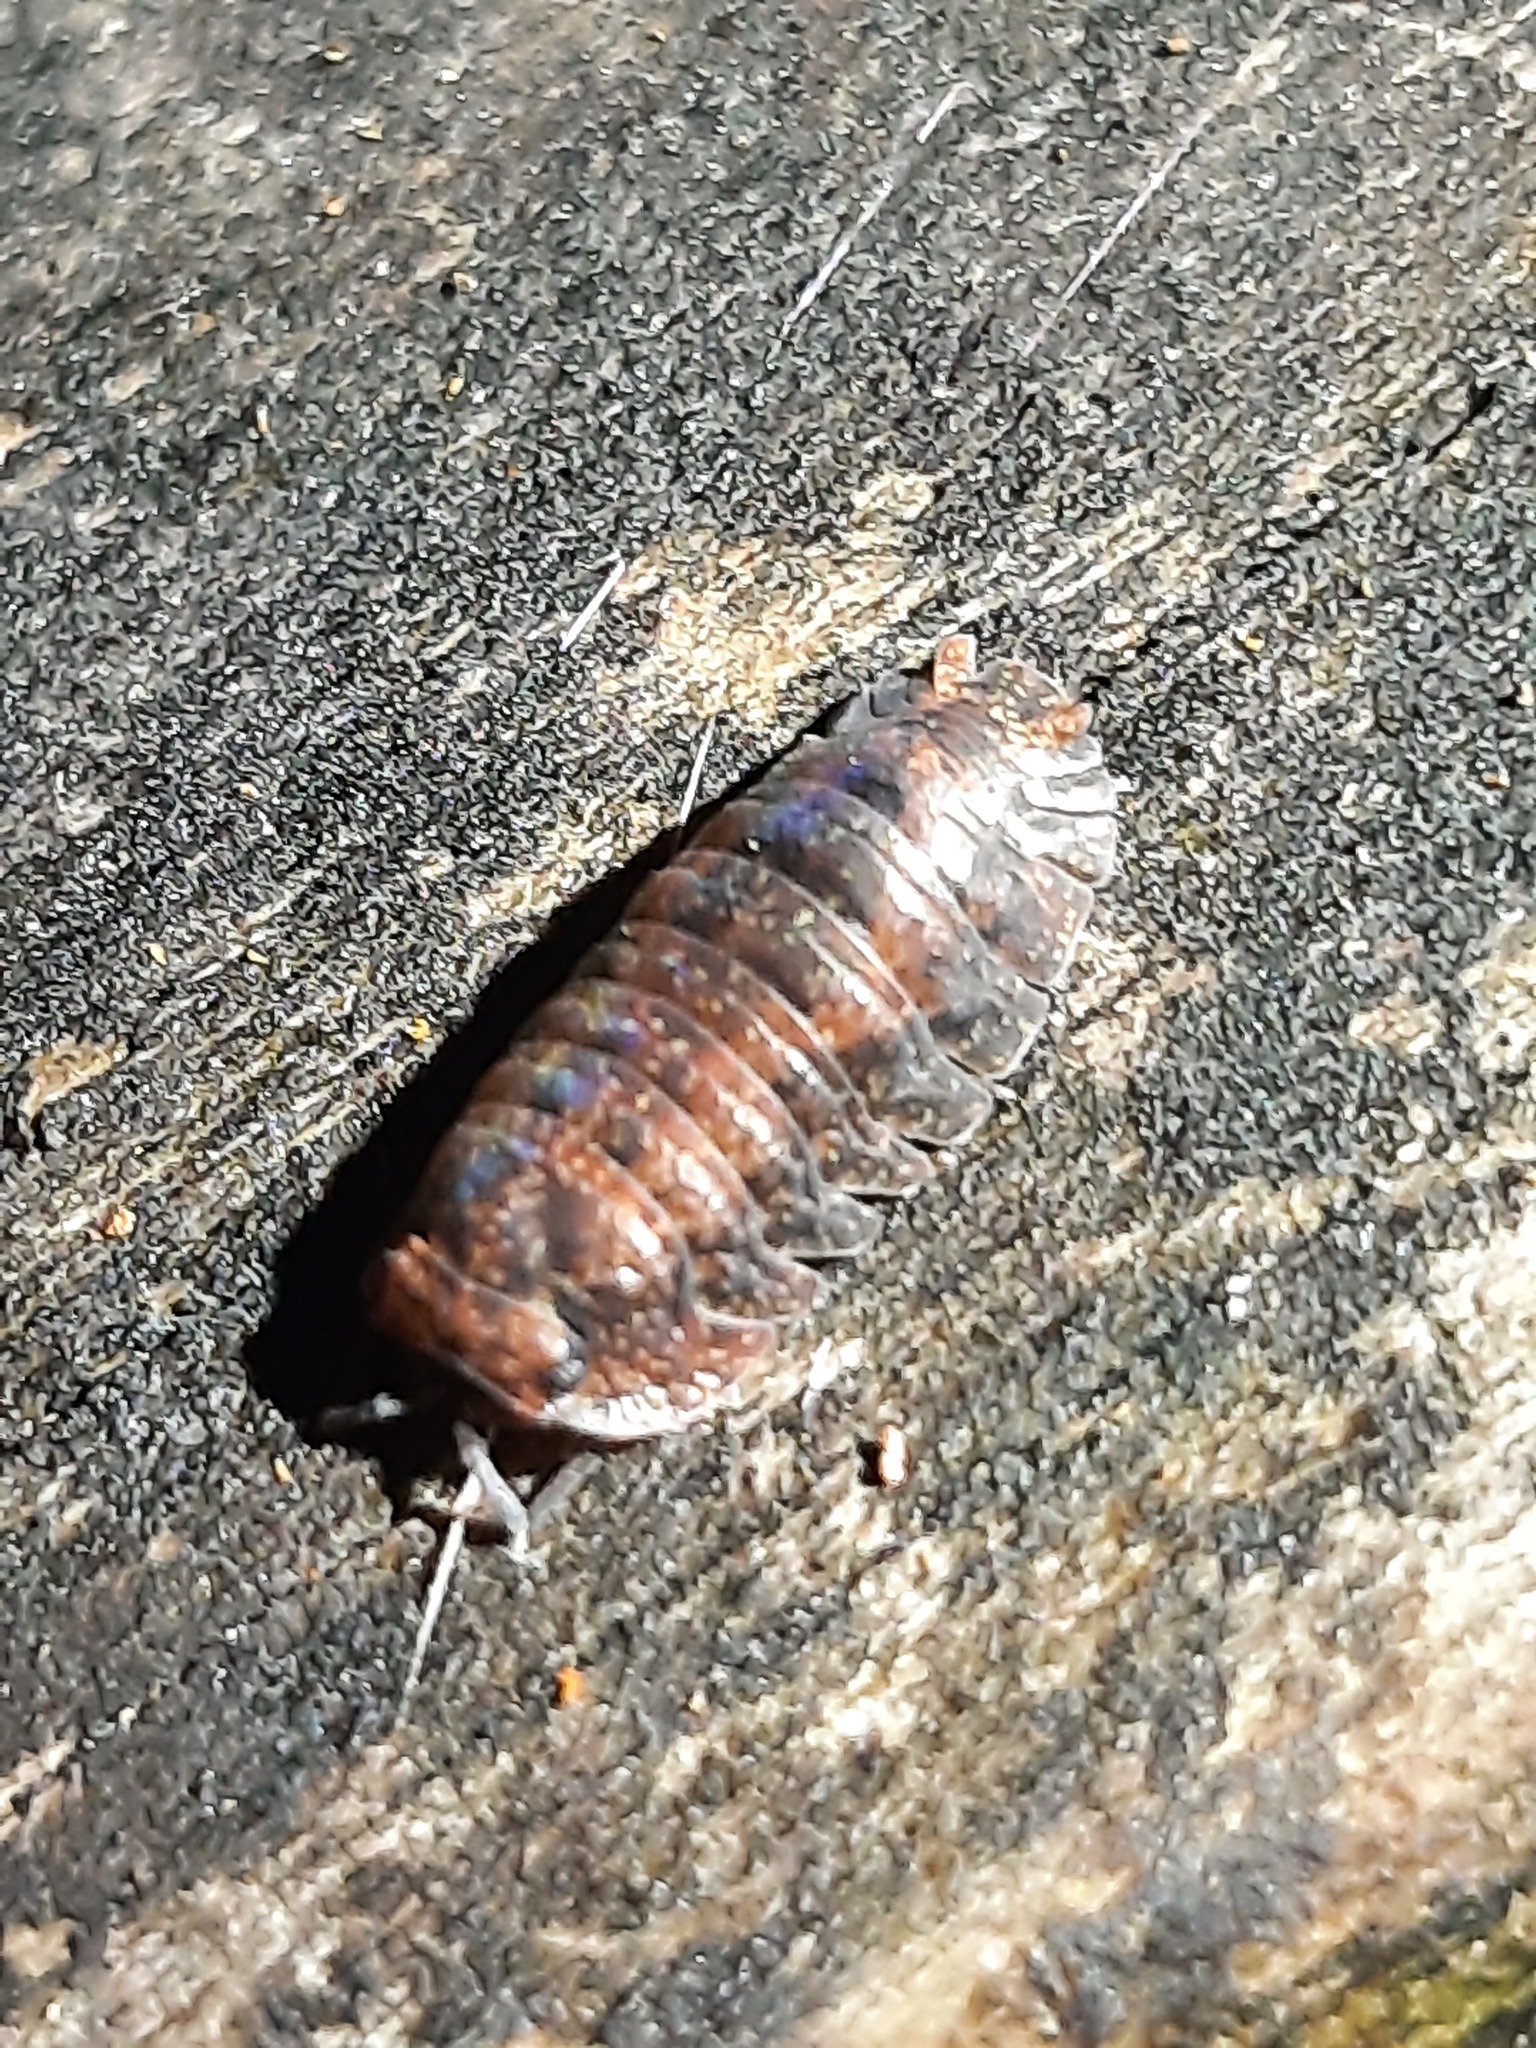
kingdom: Animalia
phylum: Arthropoda
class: Malacostraca
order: Isopoda
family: Armadillidae
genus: Cubaris
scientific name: Cubaris tarangensis
